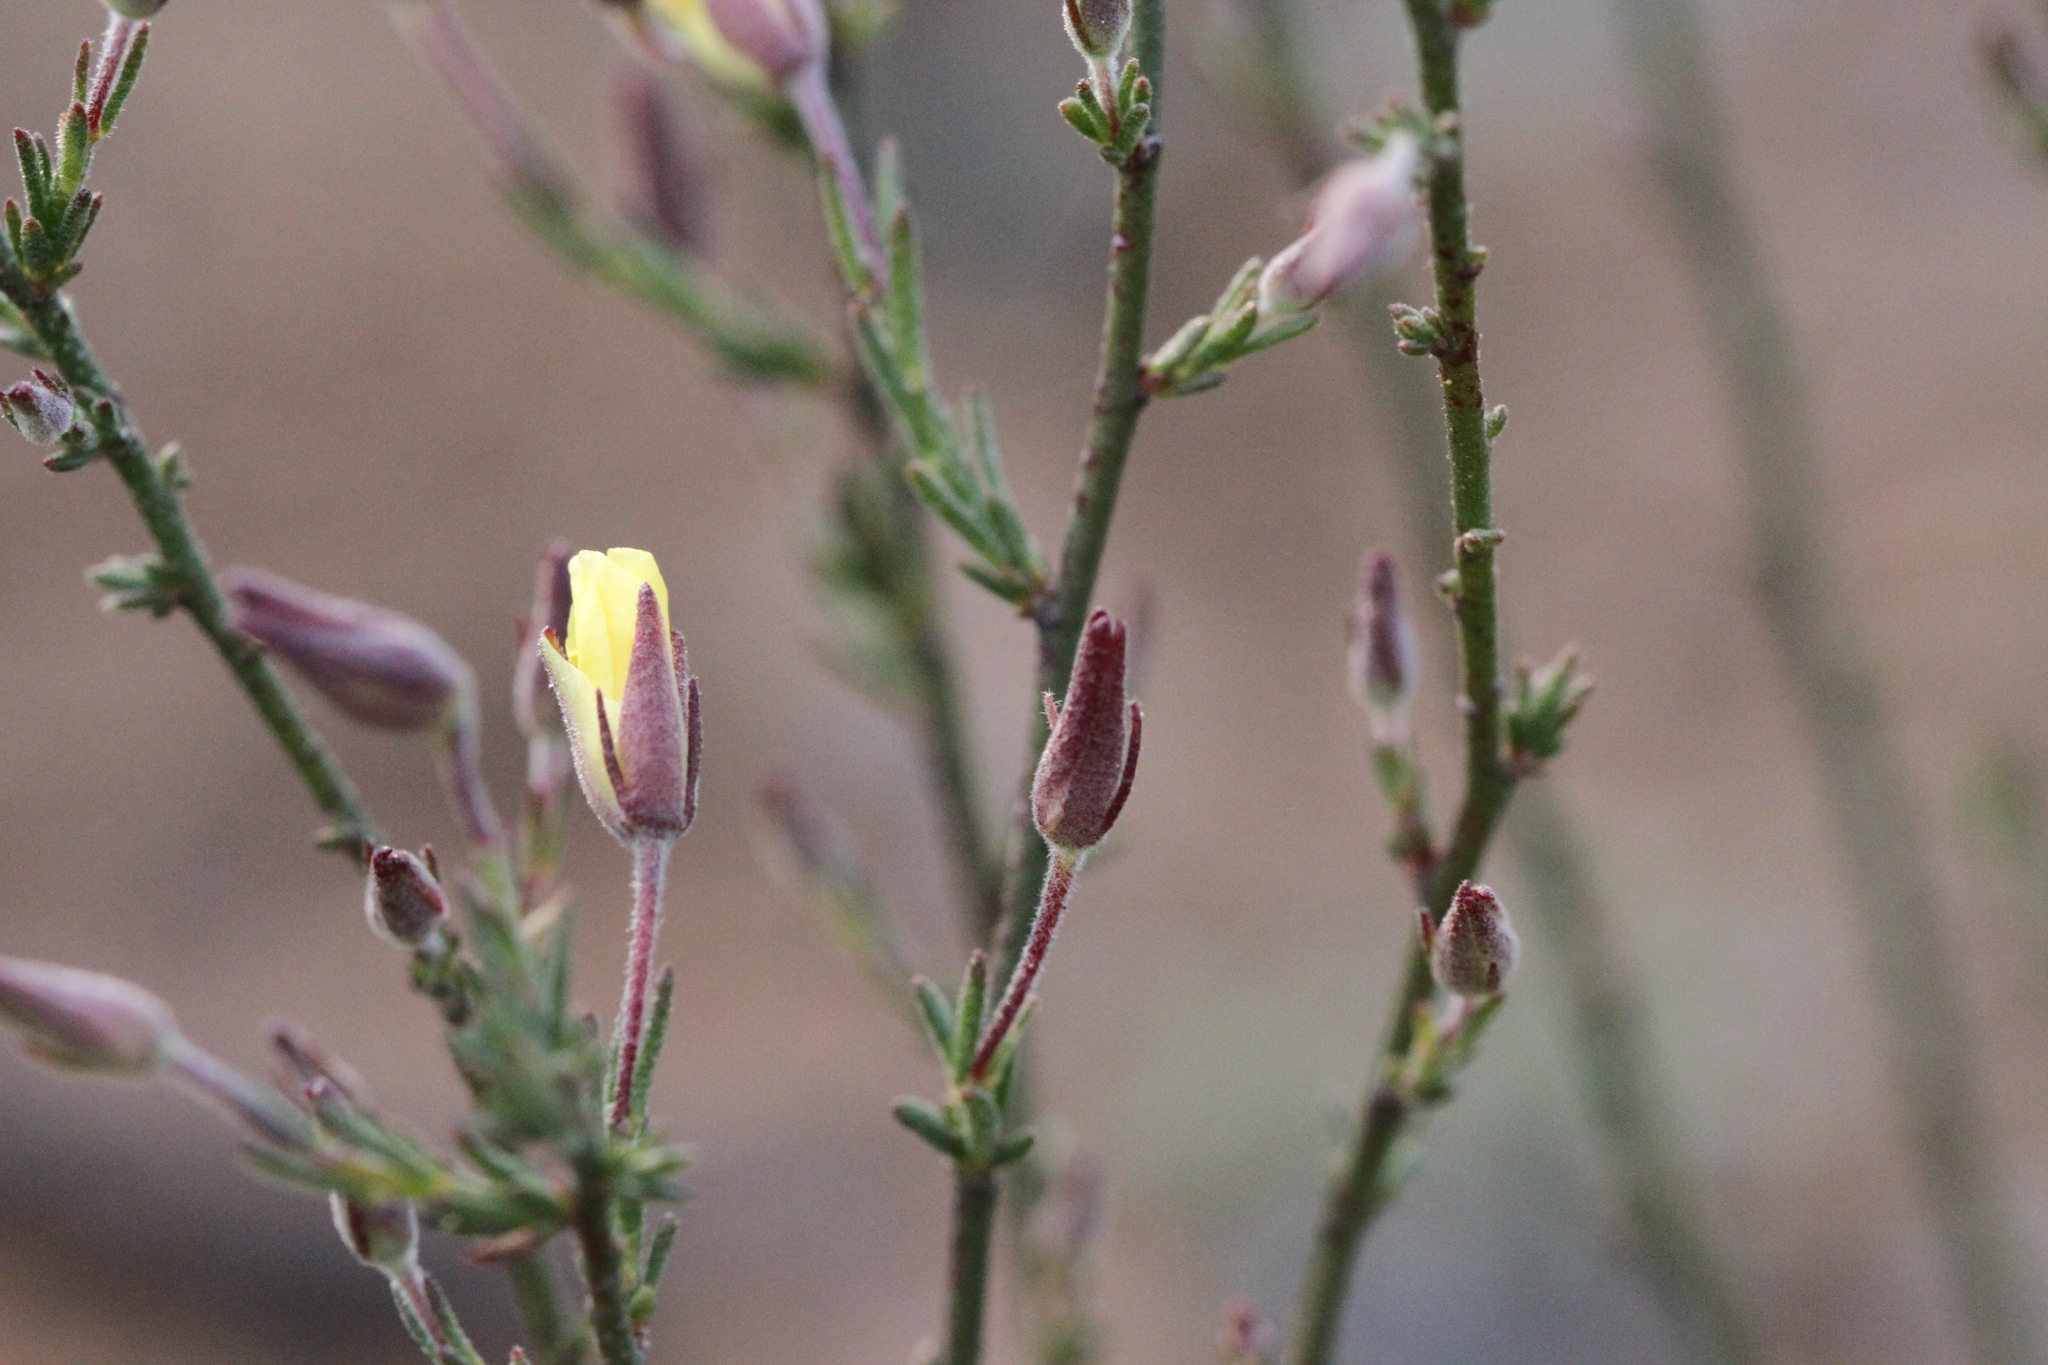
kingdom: Plantae
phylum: Tracheophyta
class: Magnoliopsida
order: Malvales
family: Cistaceae
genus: Crocanthemum
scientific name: Crocanthemum scoparium
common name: Broom-rose
